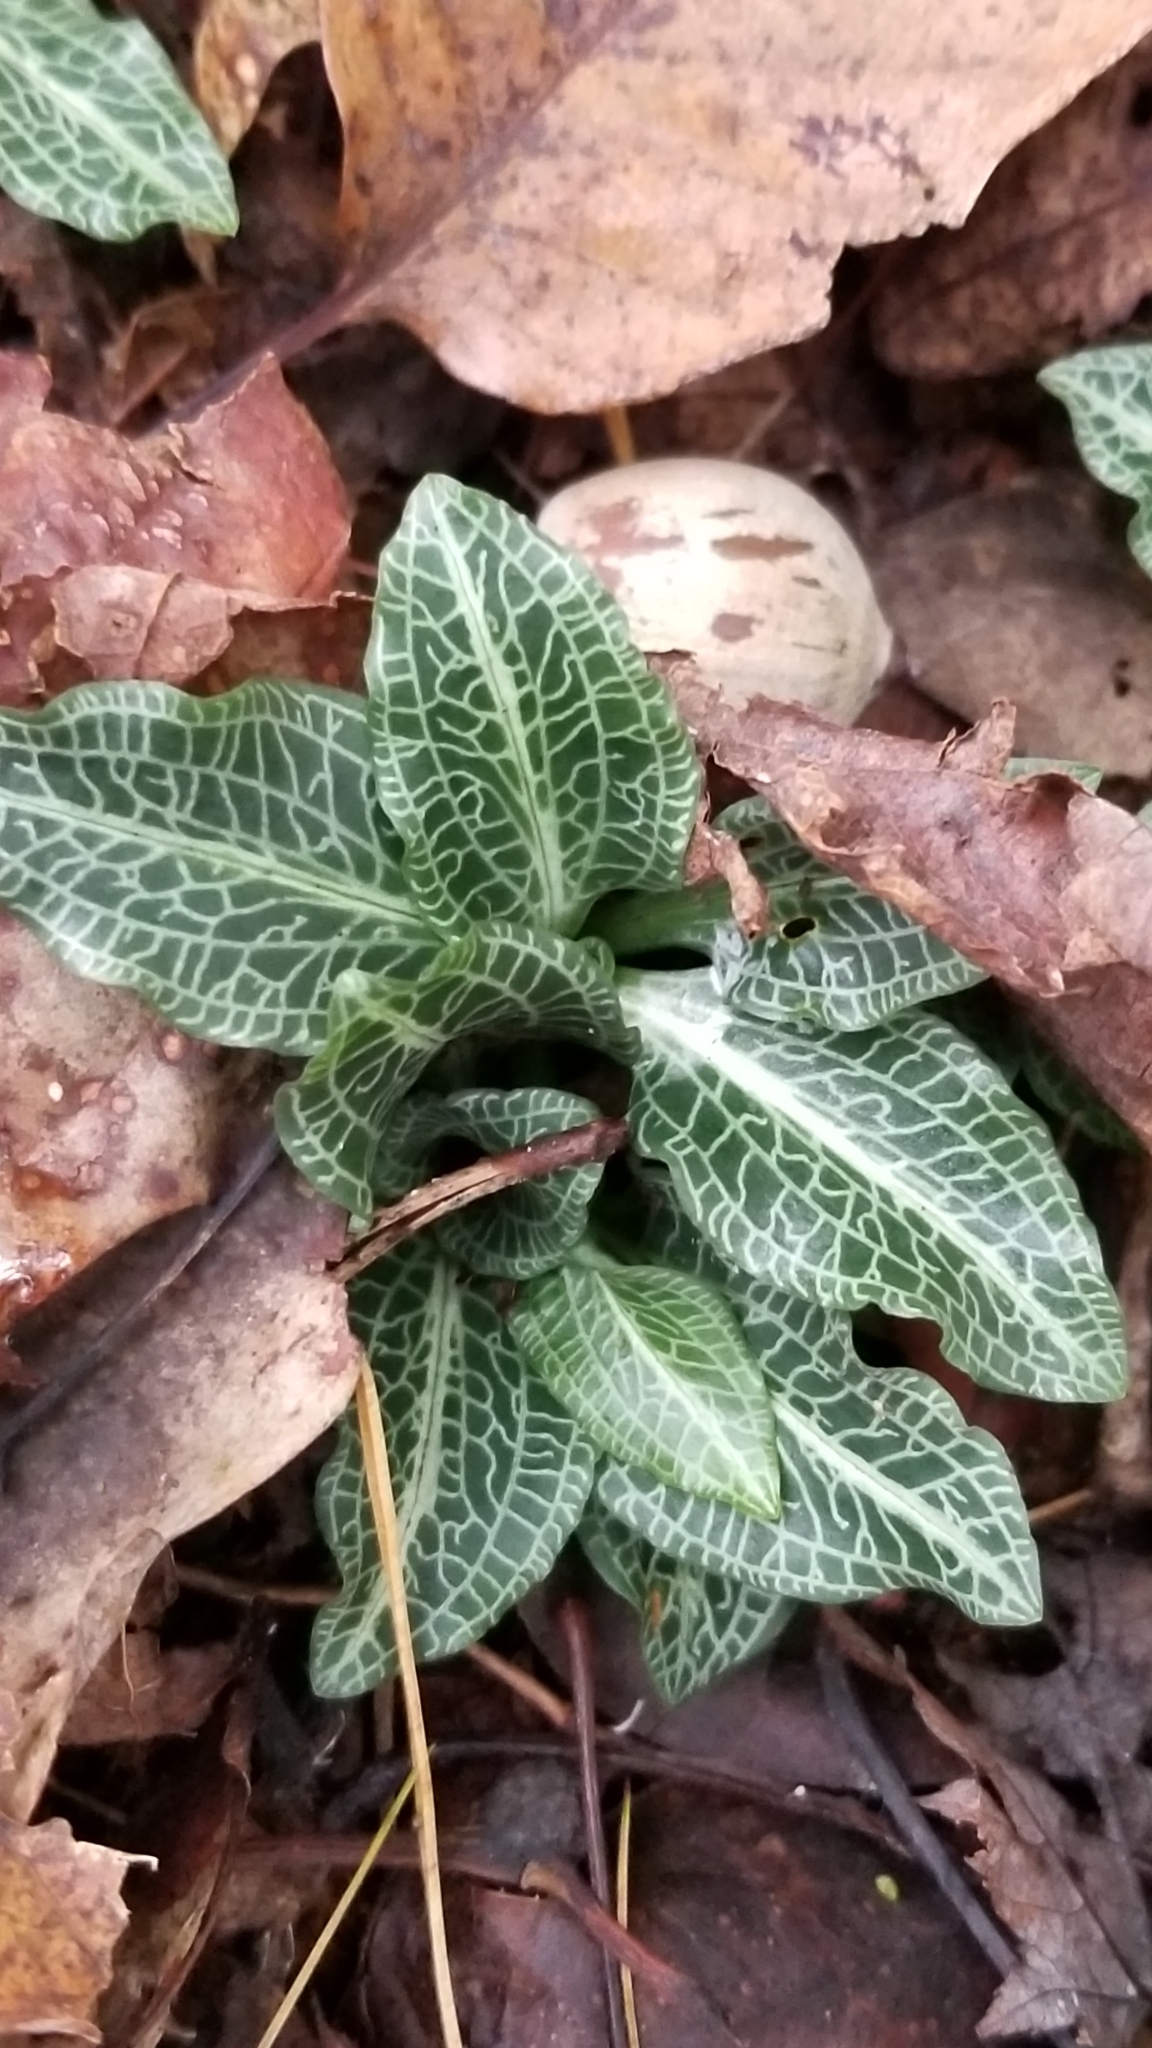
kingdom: Plantae
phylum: Tracheophyta
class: Liliopsida
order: Asparagales
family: Orchidaceae
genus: Goodyera
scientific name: Goodyera pubescens
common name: Downy rattlesnake-plantain
